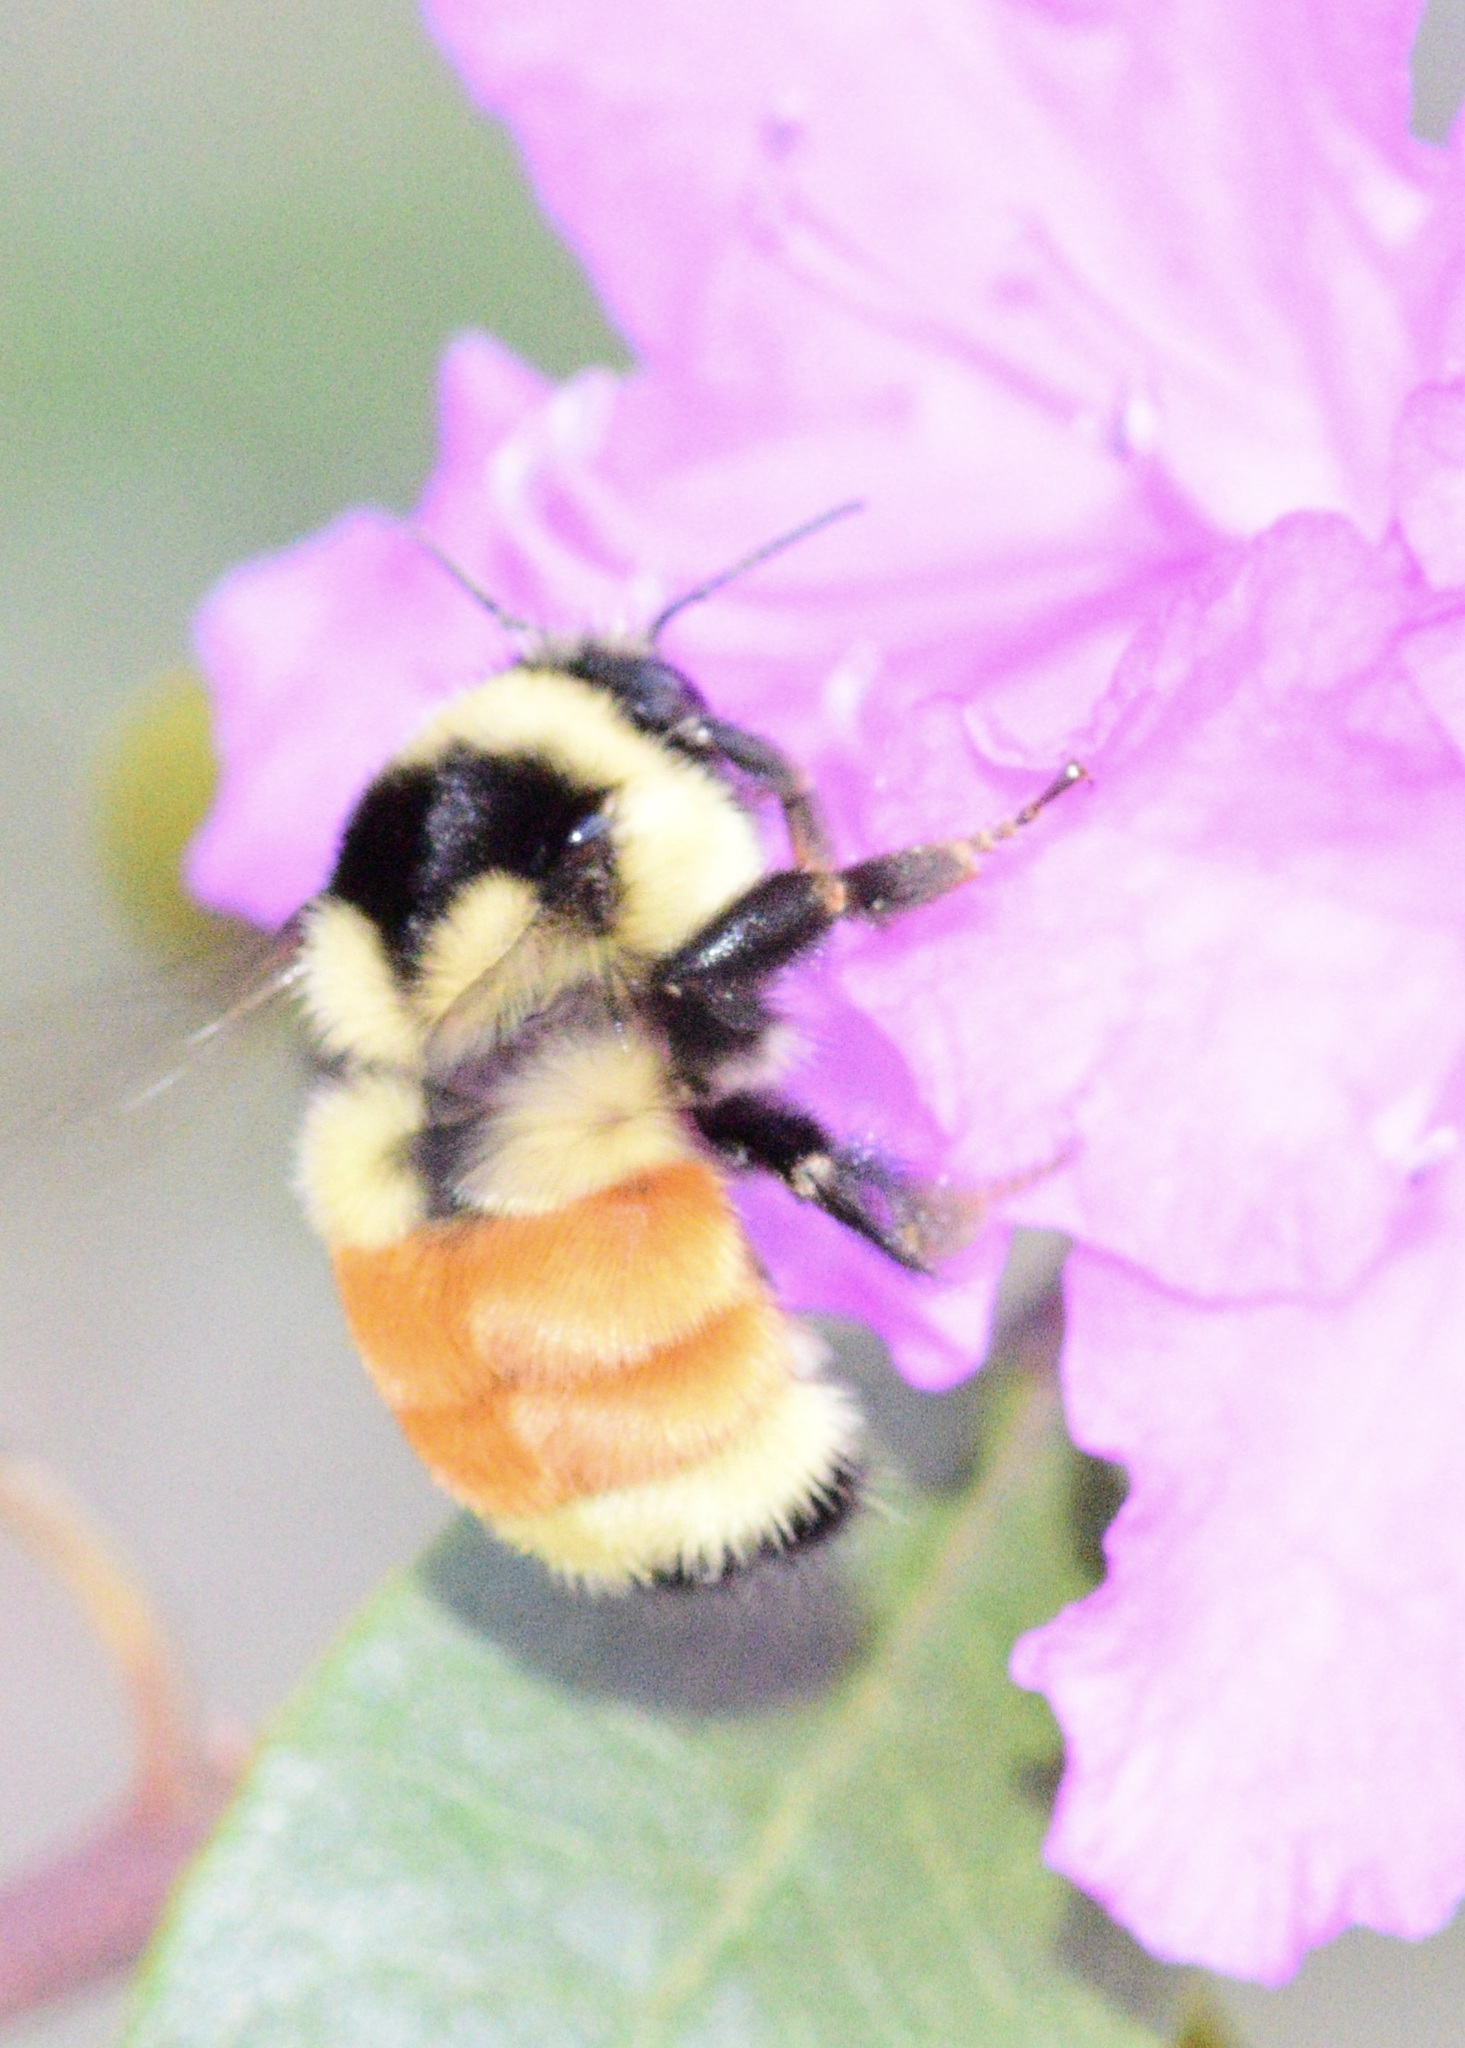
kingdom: Animalia
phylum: Arthropoda
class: Insecta
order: Hymenoptera
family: Apidae
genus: Bombus
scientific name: Bombus ternarius
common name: Tri-colored bumble bee
